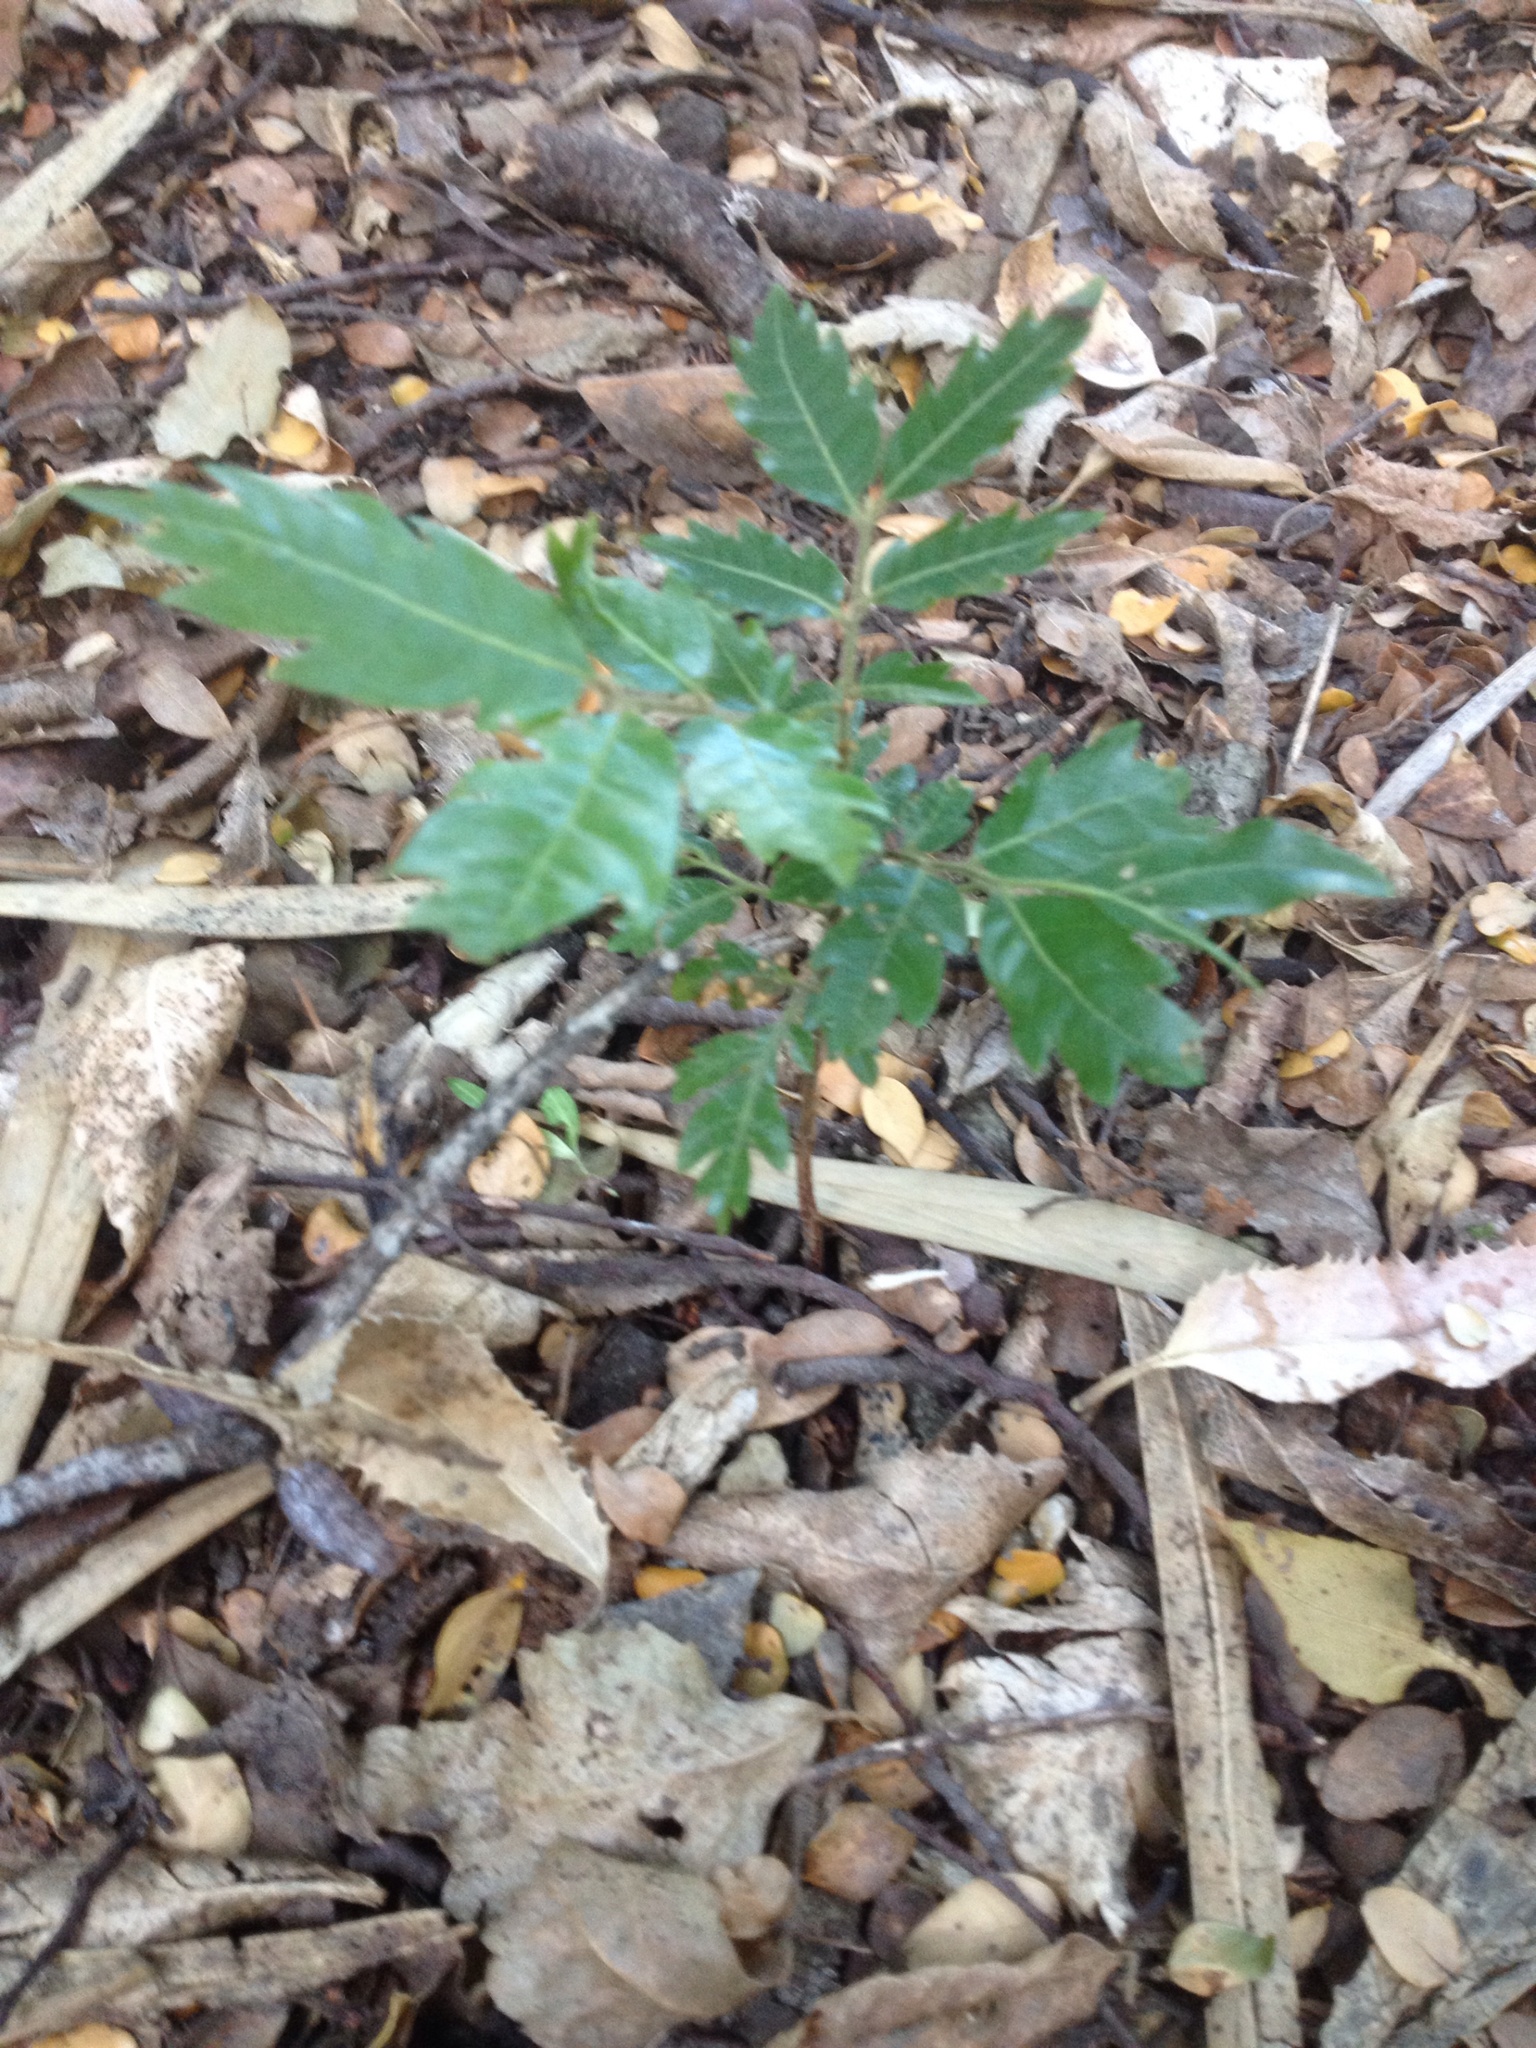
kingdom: Plantae
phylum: Tracheophyta
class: Magnoliopsida
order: Sapindales
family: Sapindaceae
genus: Alectryon
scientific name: Alectryon excelsus
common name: Three kings titoki
